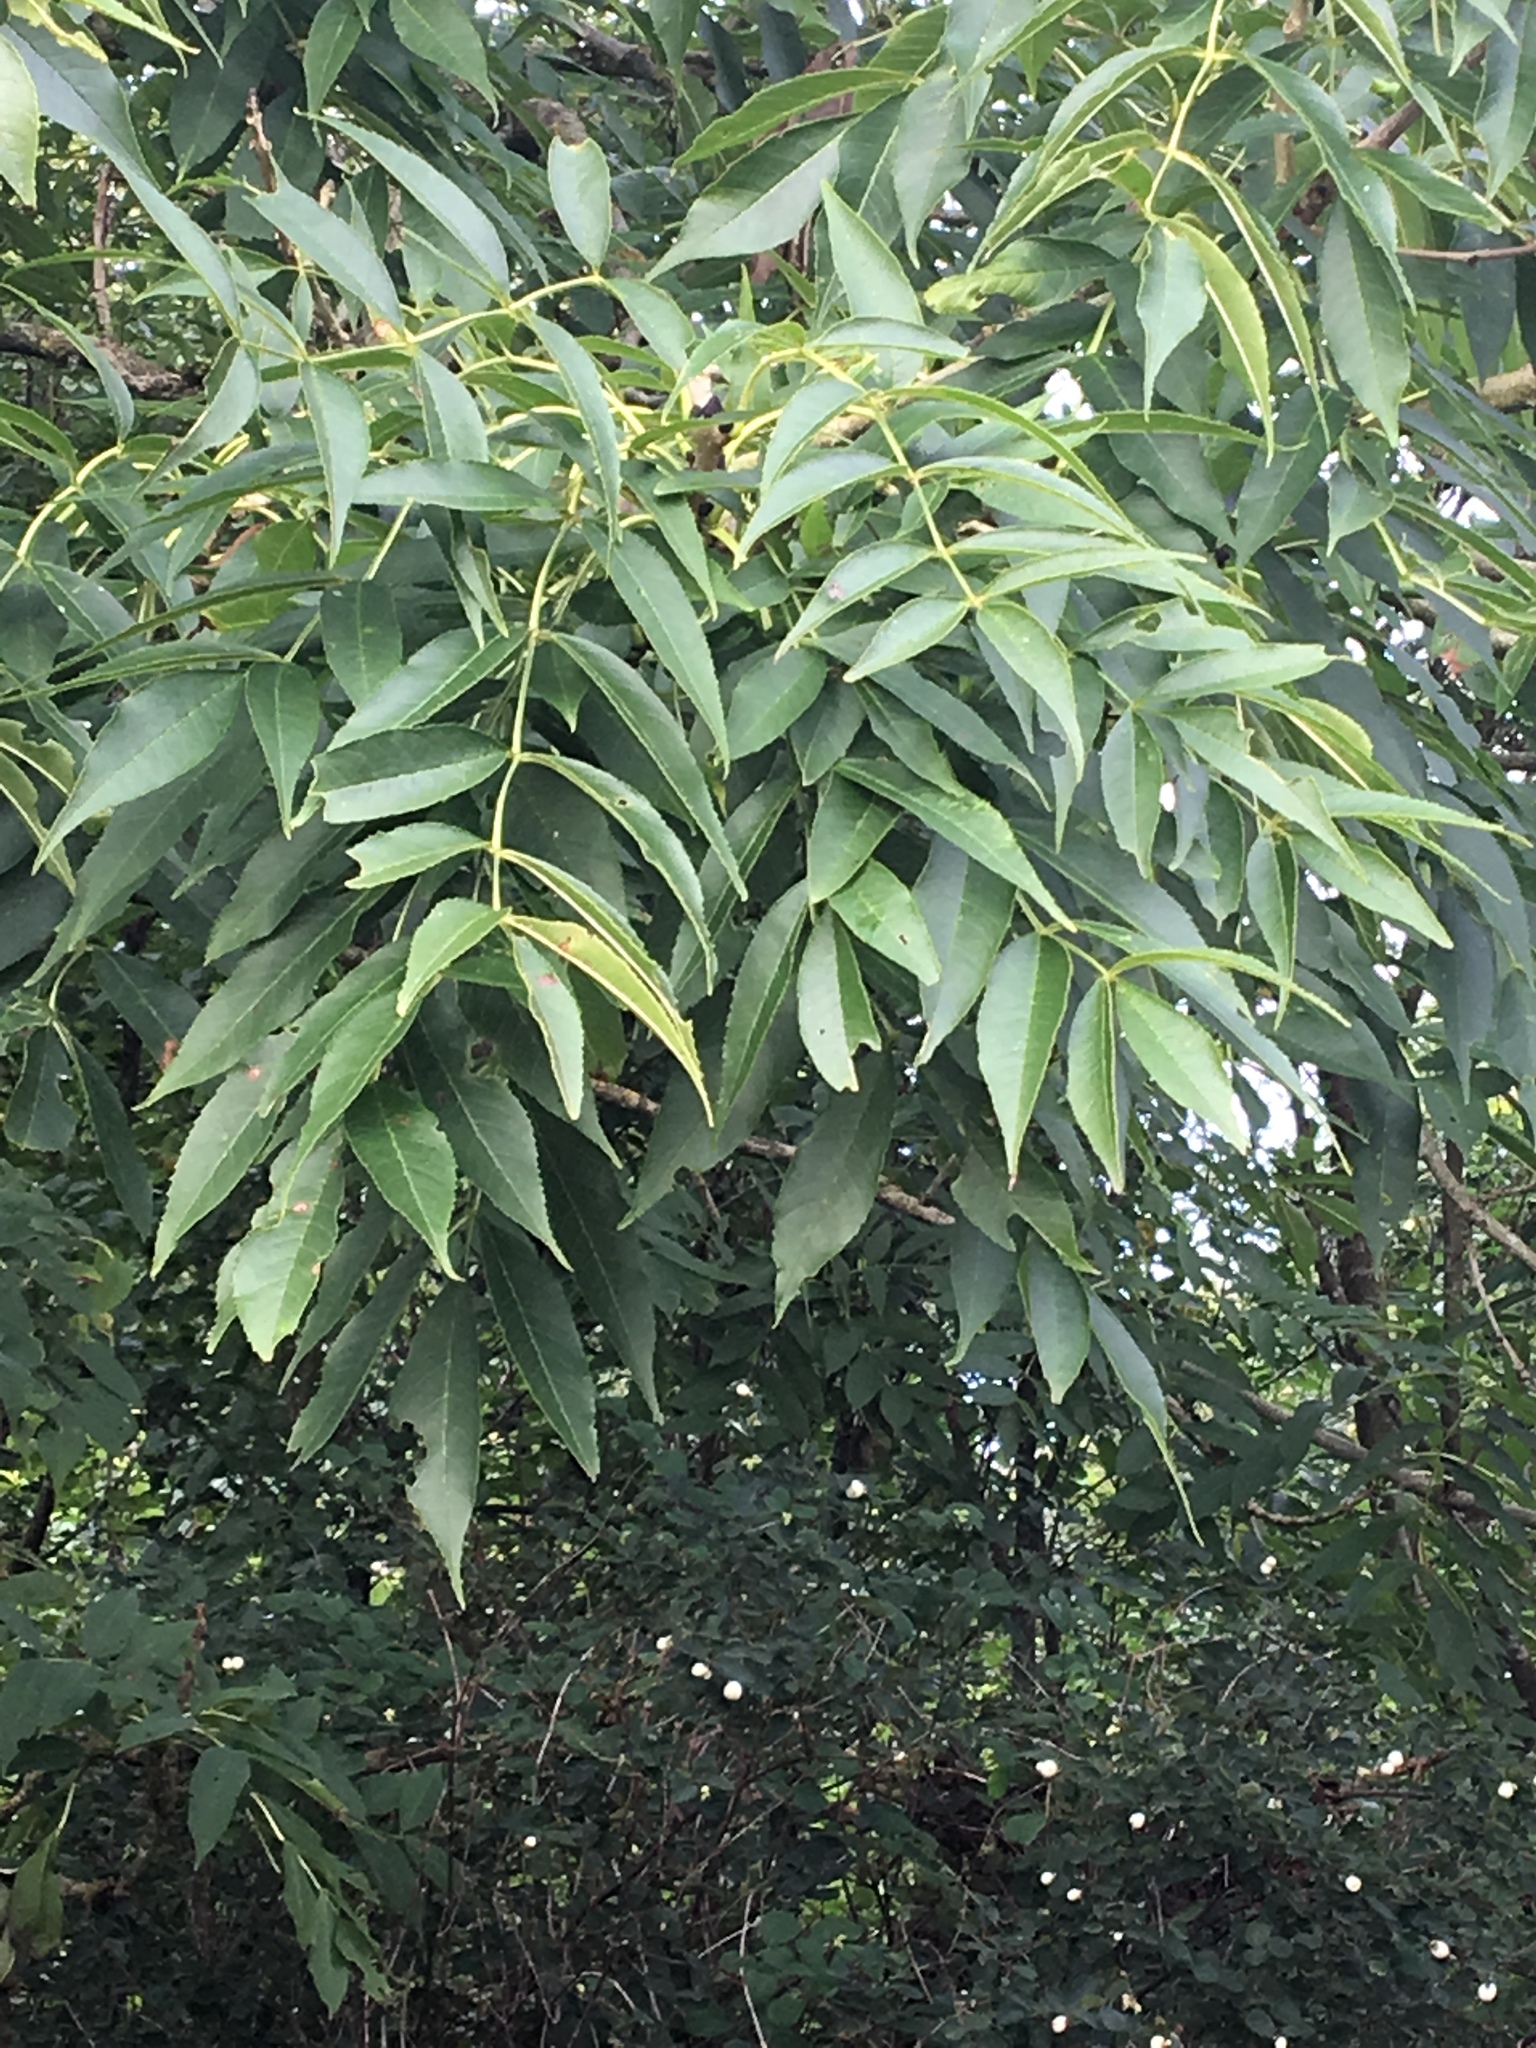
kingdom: Plantae
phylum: Tracheophyta
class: Magnoliopsida
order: Lamiales
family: Oleaceae
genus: Fraxinus
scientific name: Fraxinus excelsior
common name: European ash
